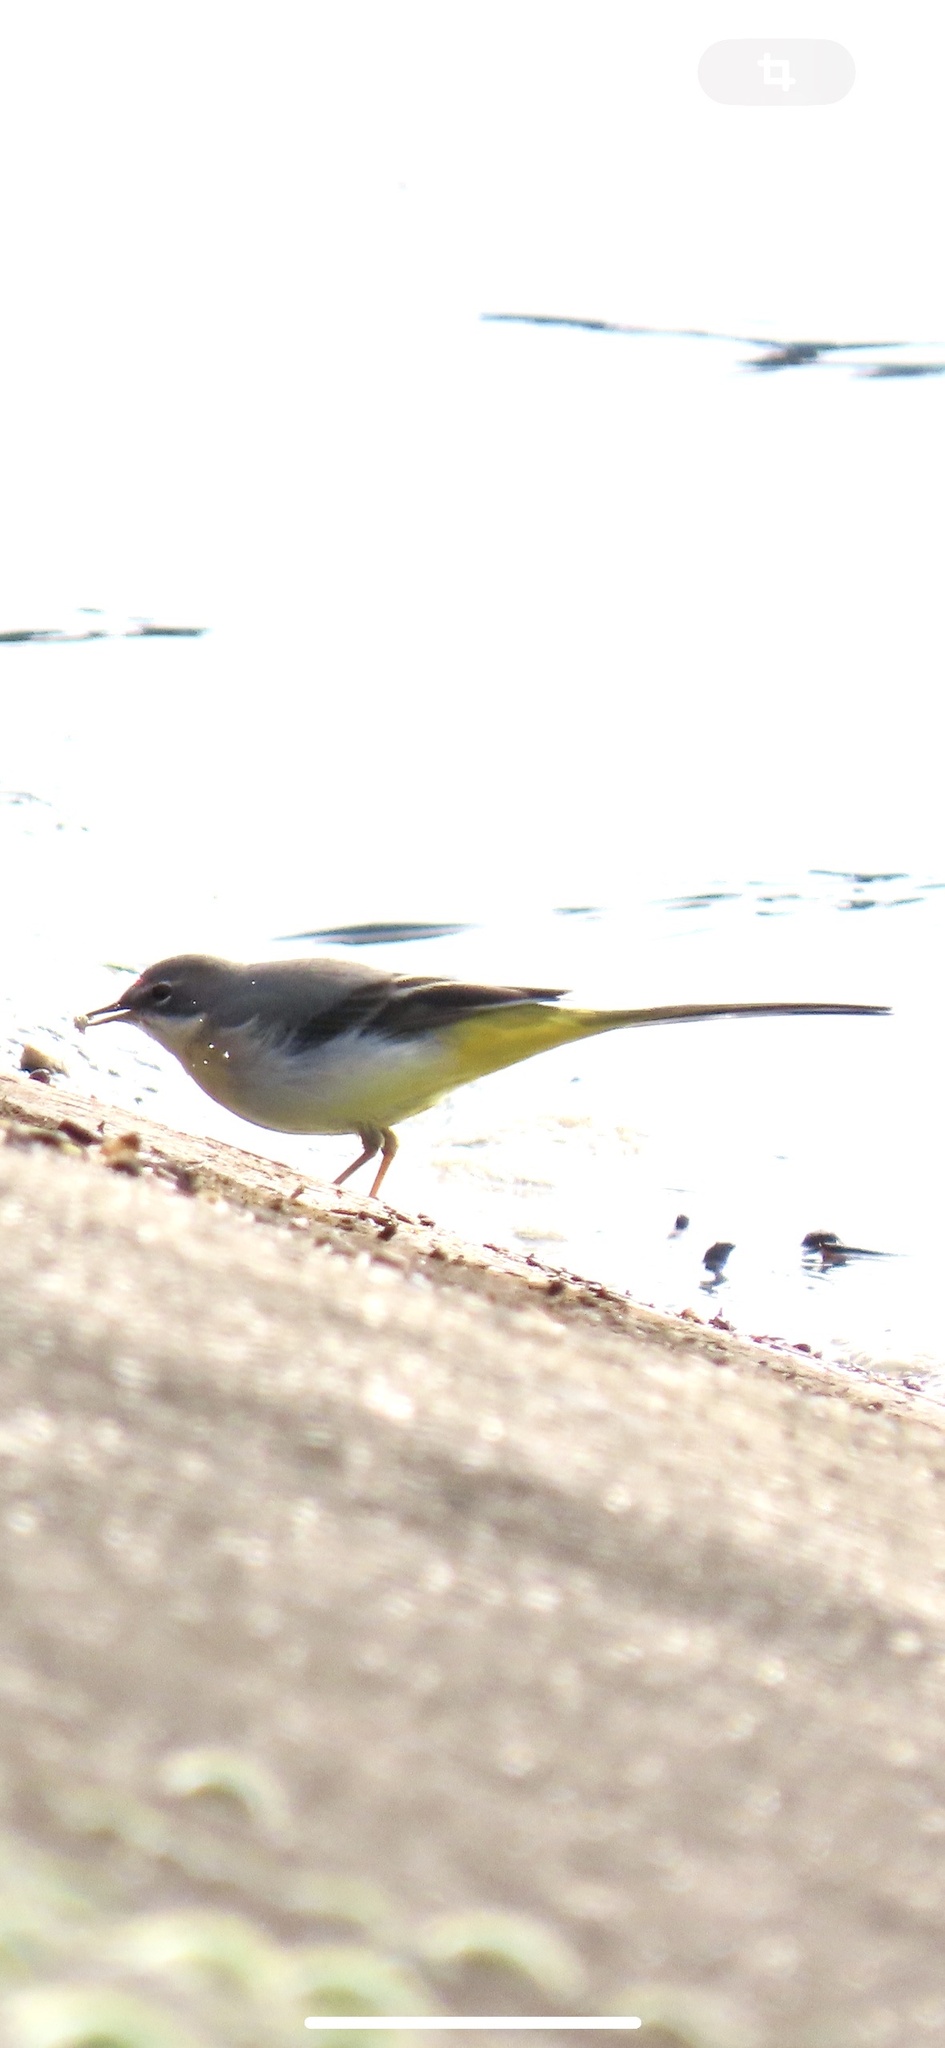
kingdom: Animalia
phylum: Chordata
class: Aves
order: Passeriformes
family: Motacillidae
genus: Motacilla
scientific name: Motacilla cinerea
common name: Grey wagtail
